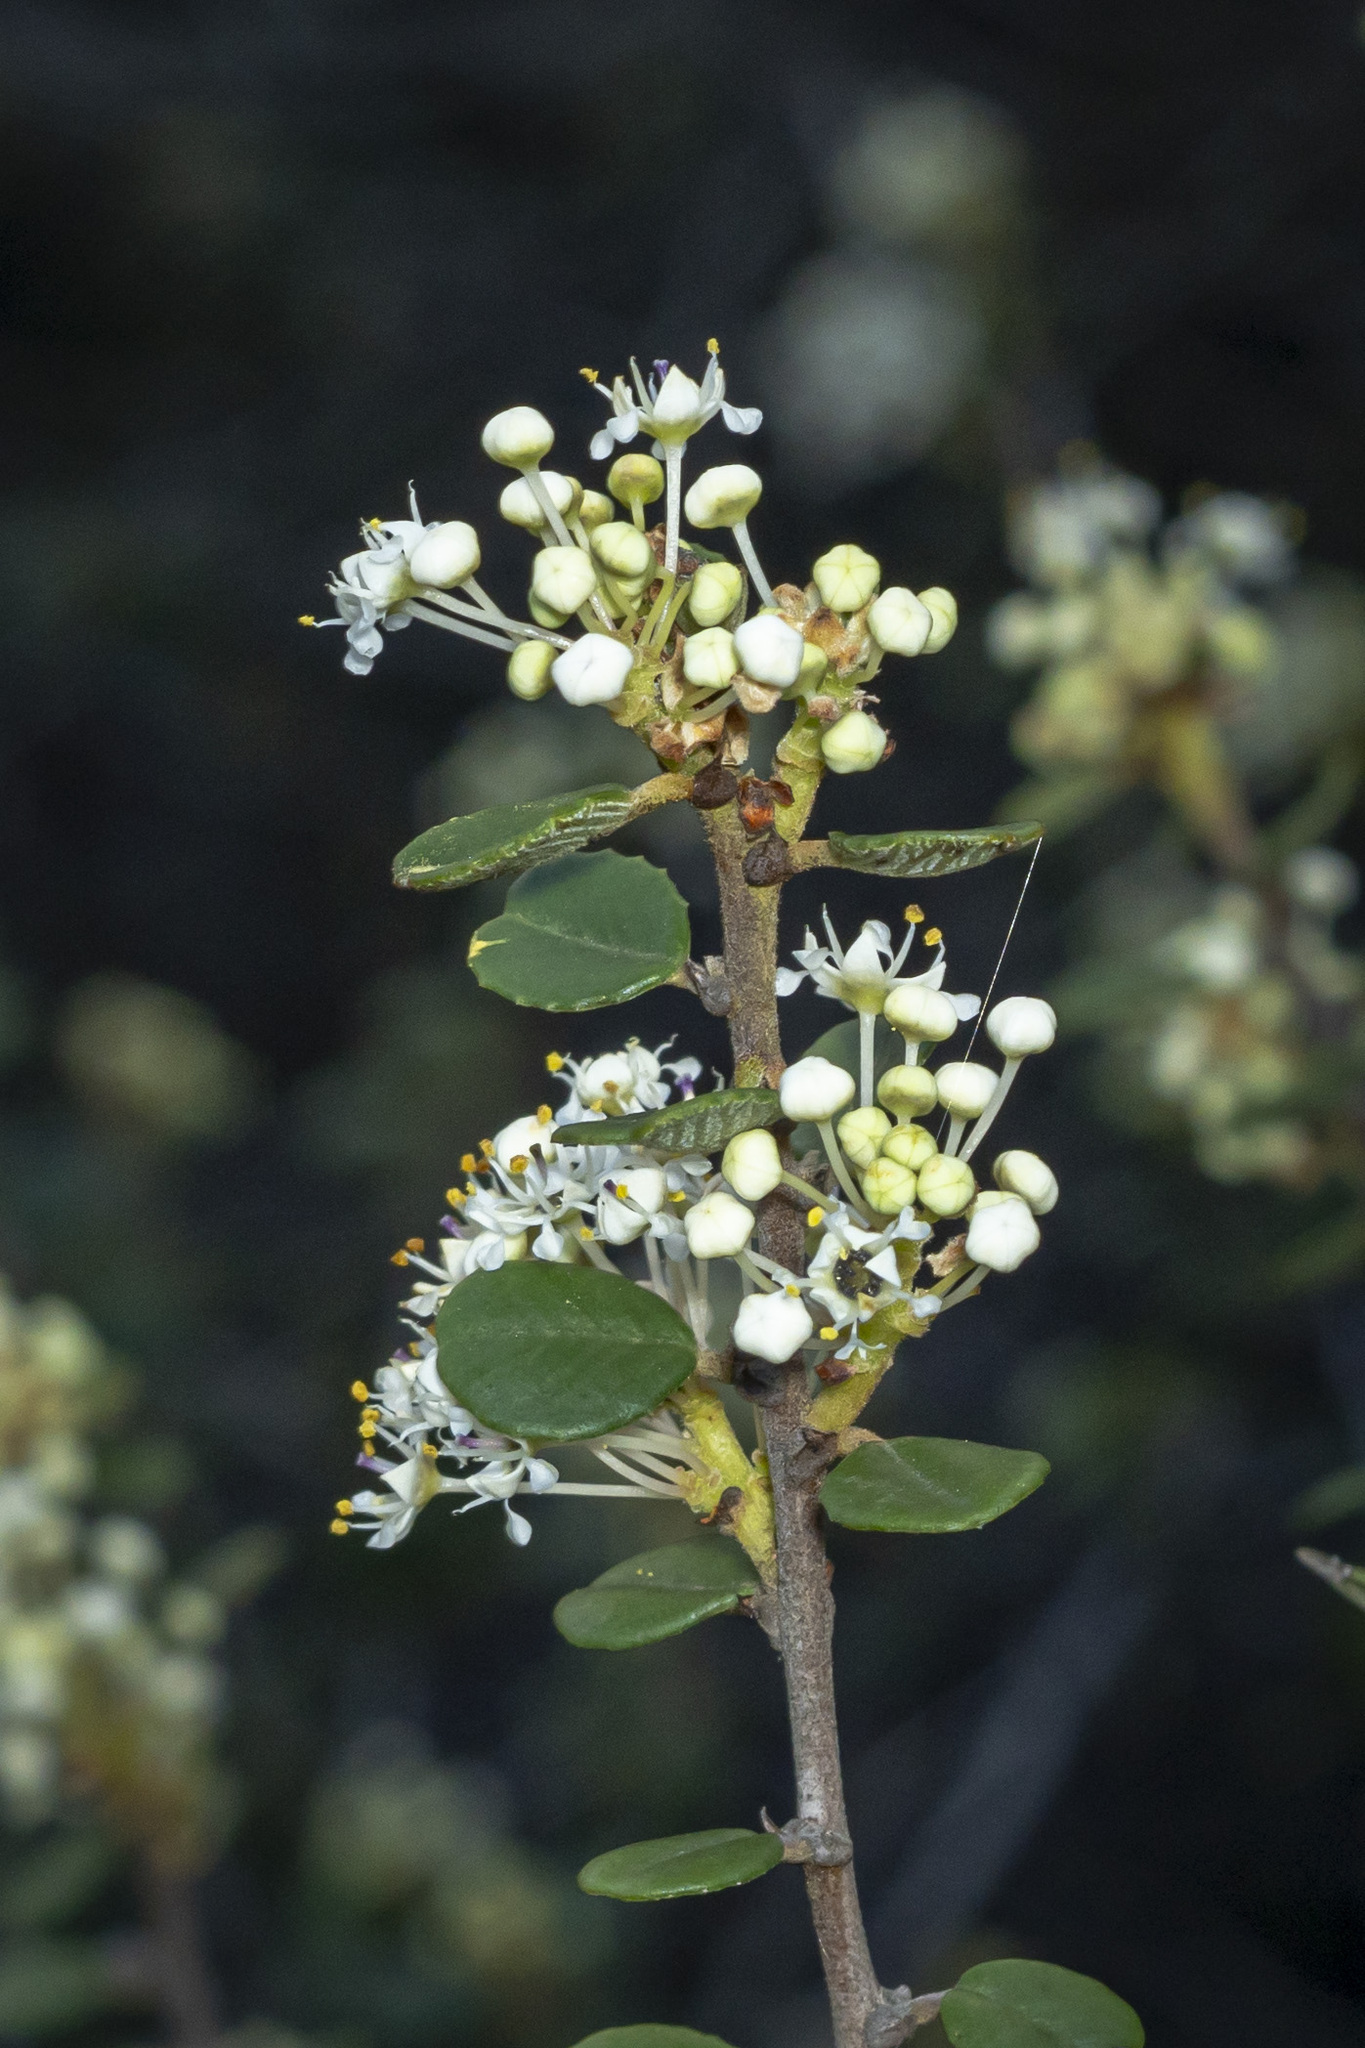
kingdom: Plantae
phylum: Tracheophyta
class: Magnoliopsida
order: Rosales
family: Rhamnaceae
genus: Ceanothus
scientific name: Ceanothus verrucosus
